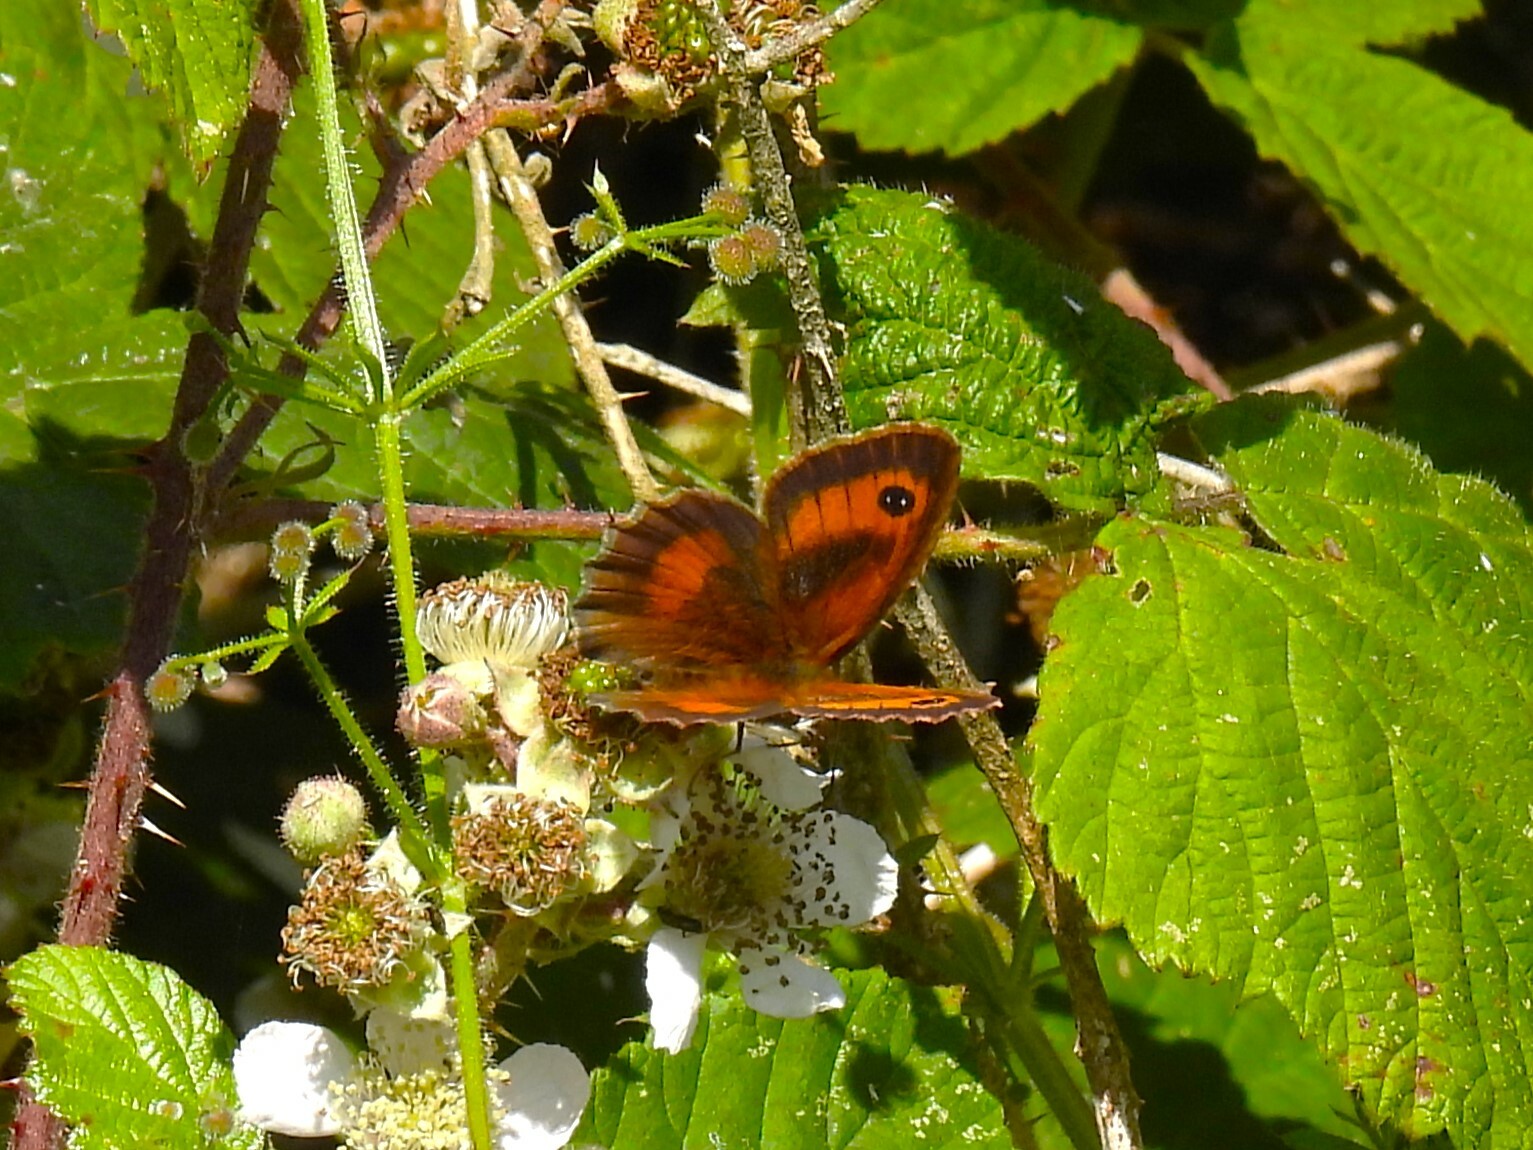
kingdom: Animalia
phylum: Arthropoda
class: Insecta
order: Lepidoptera
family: Nymphalidae
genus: Pyronia
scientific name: Pyronia tithonus
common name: Gatekeeper
